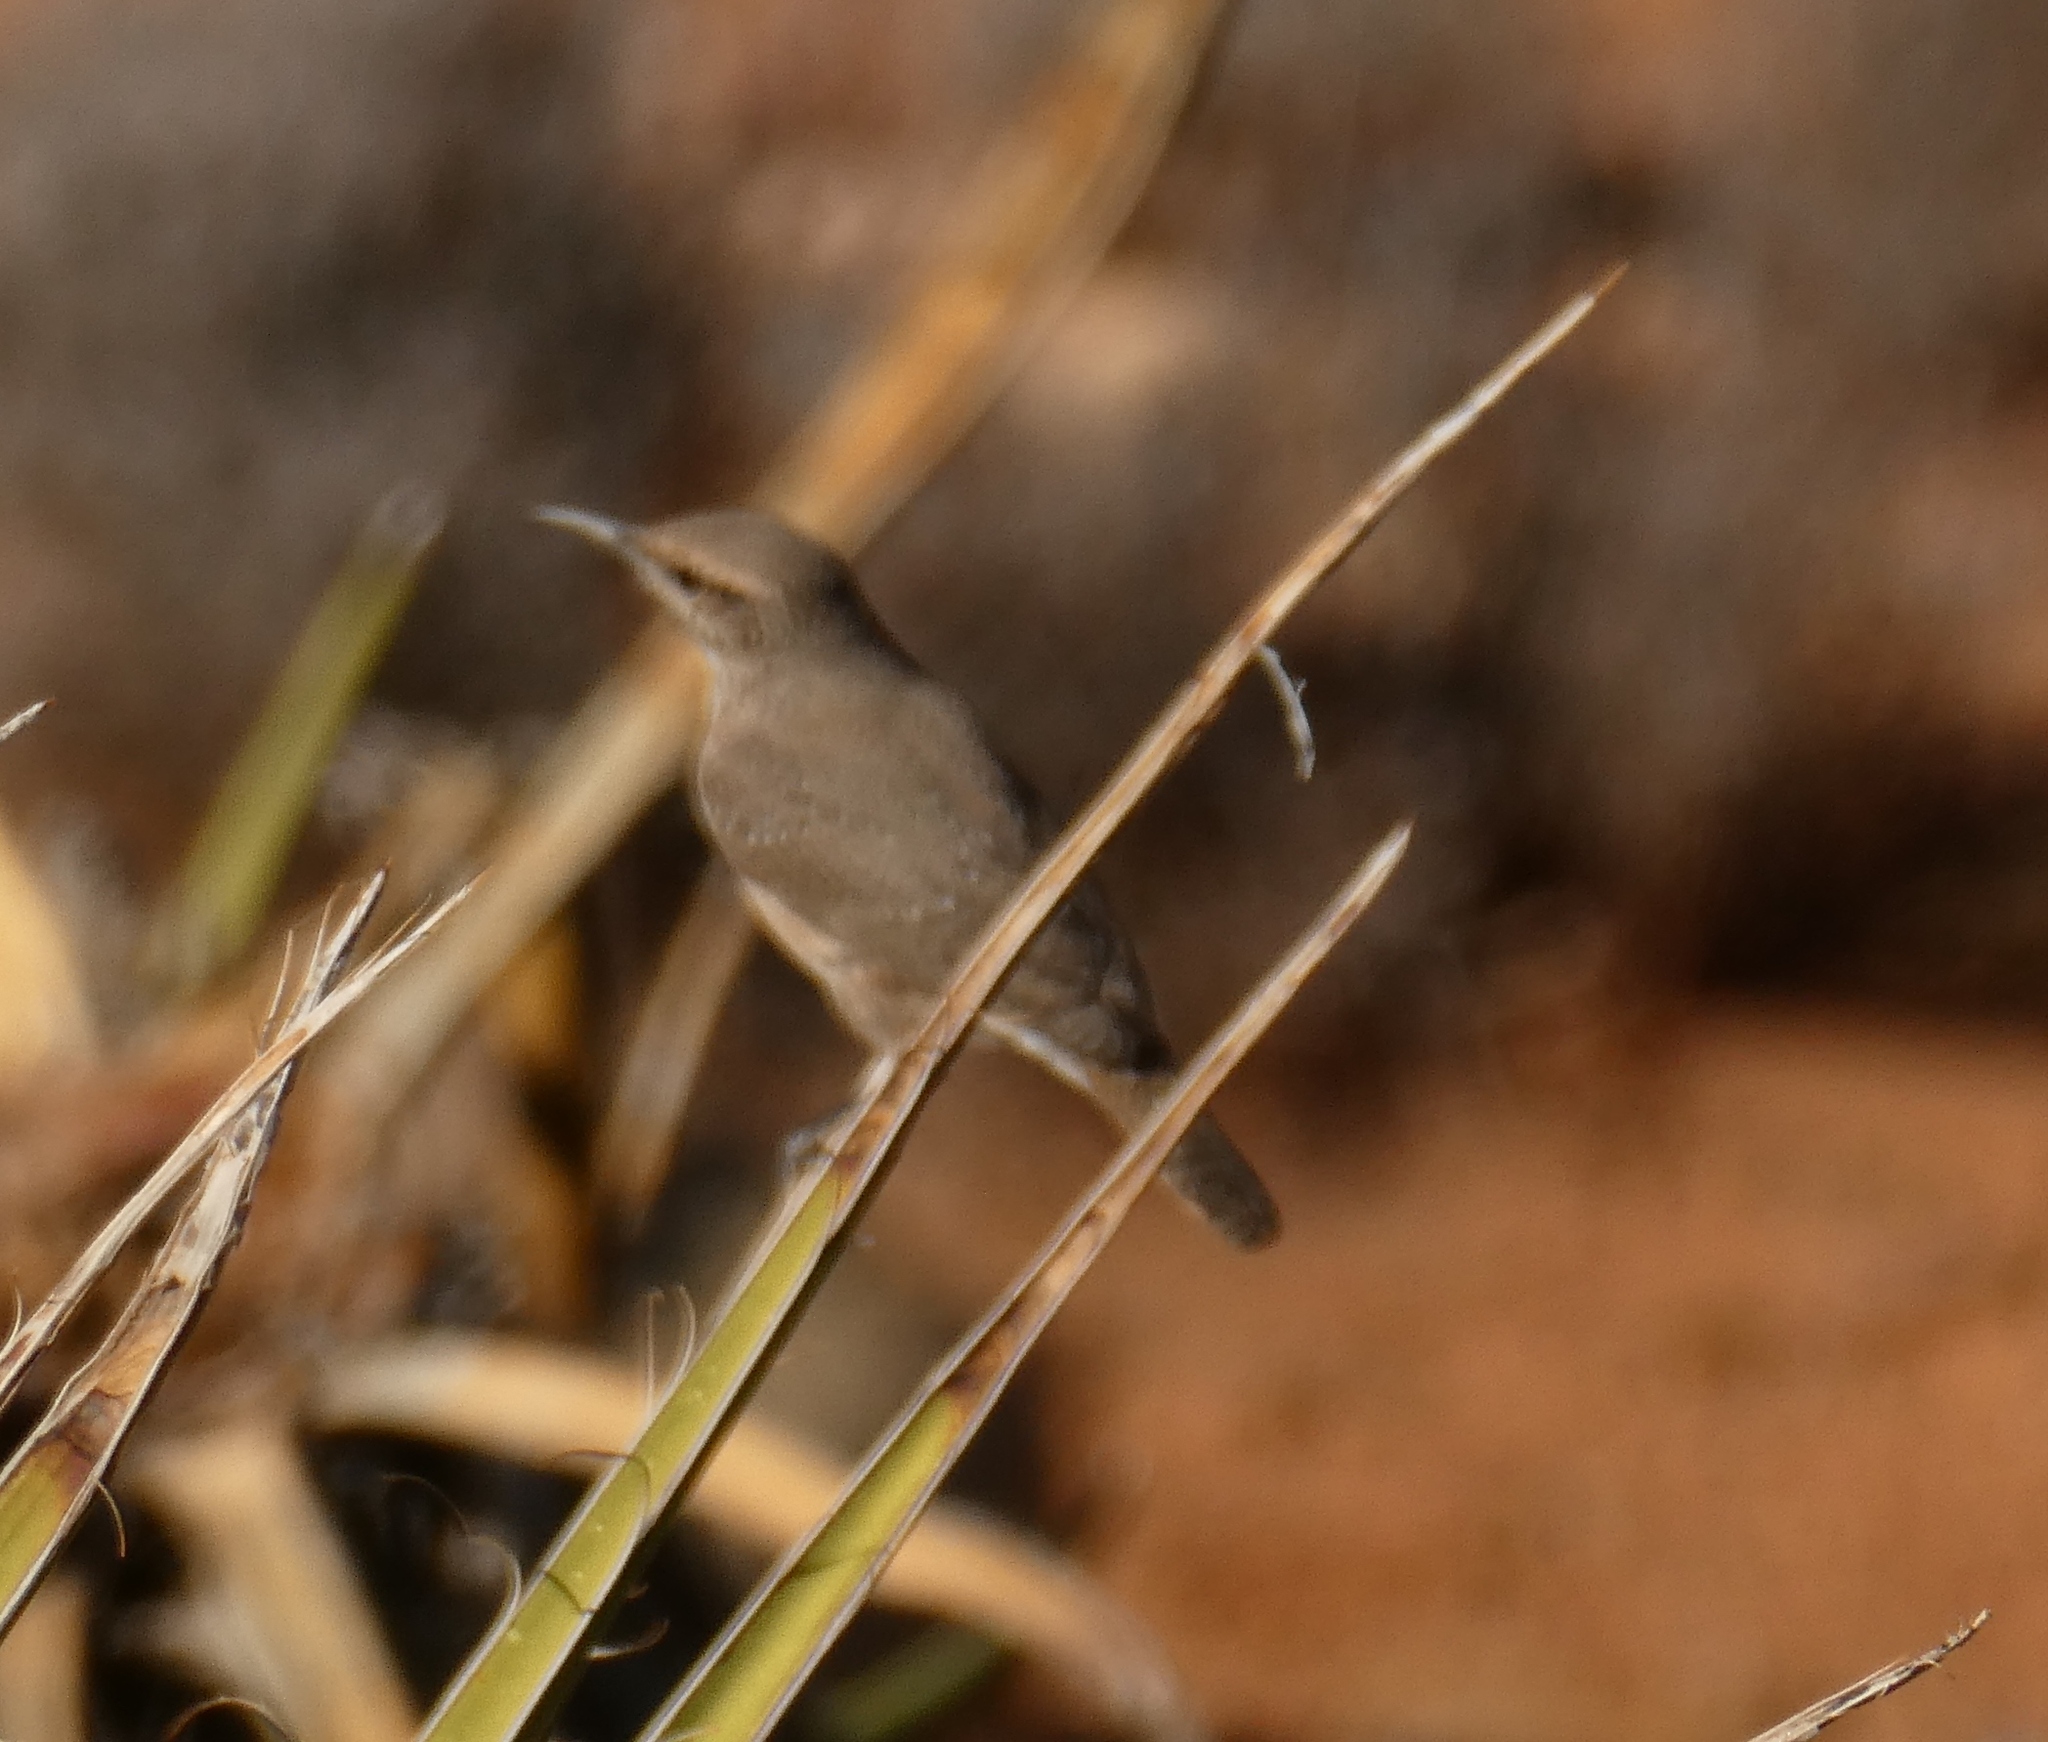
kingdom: Animalia
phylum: Chordata
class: Aves
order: Passeriformes
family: Troglodytidae
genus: Salpinctes
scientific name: Salpinctes obsoletus
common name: Rock wren
